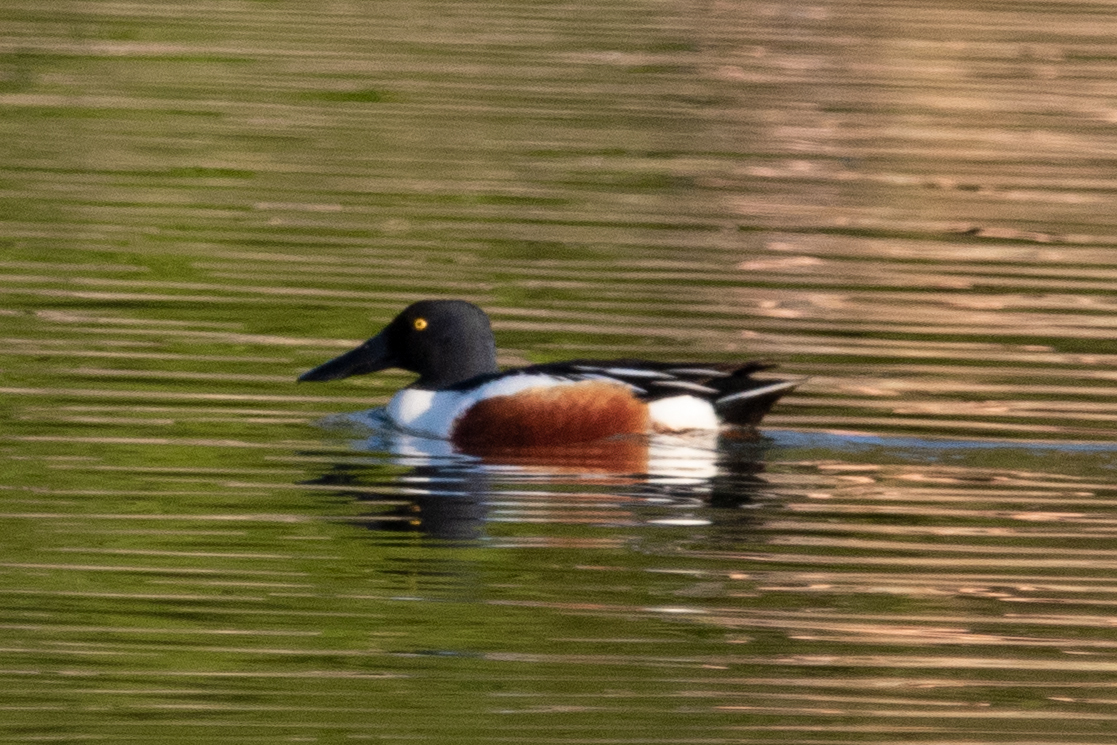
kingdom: Animalia
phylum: Chordata
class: Aves
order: Anseriformes
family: Anatidae
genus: Spatula
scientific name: Spatula clypeata
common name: Northern shoveler
